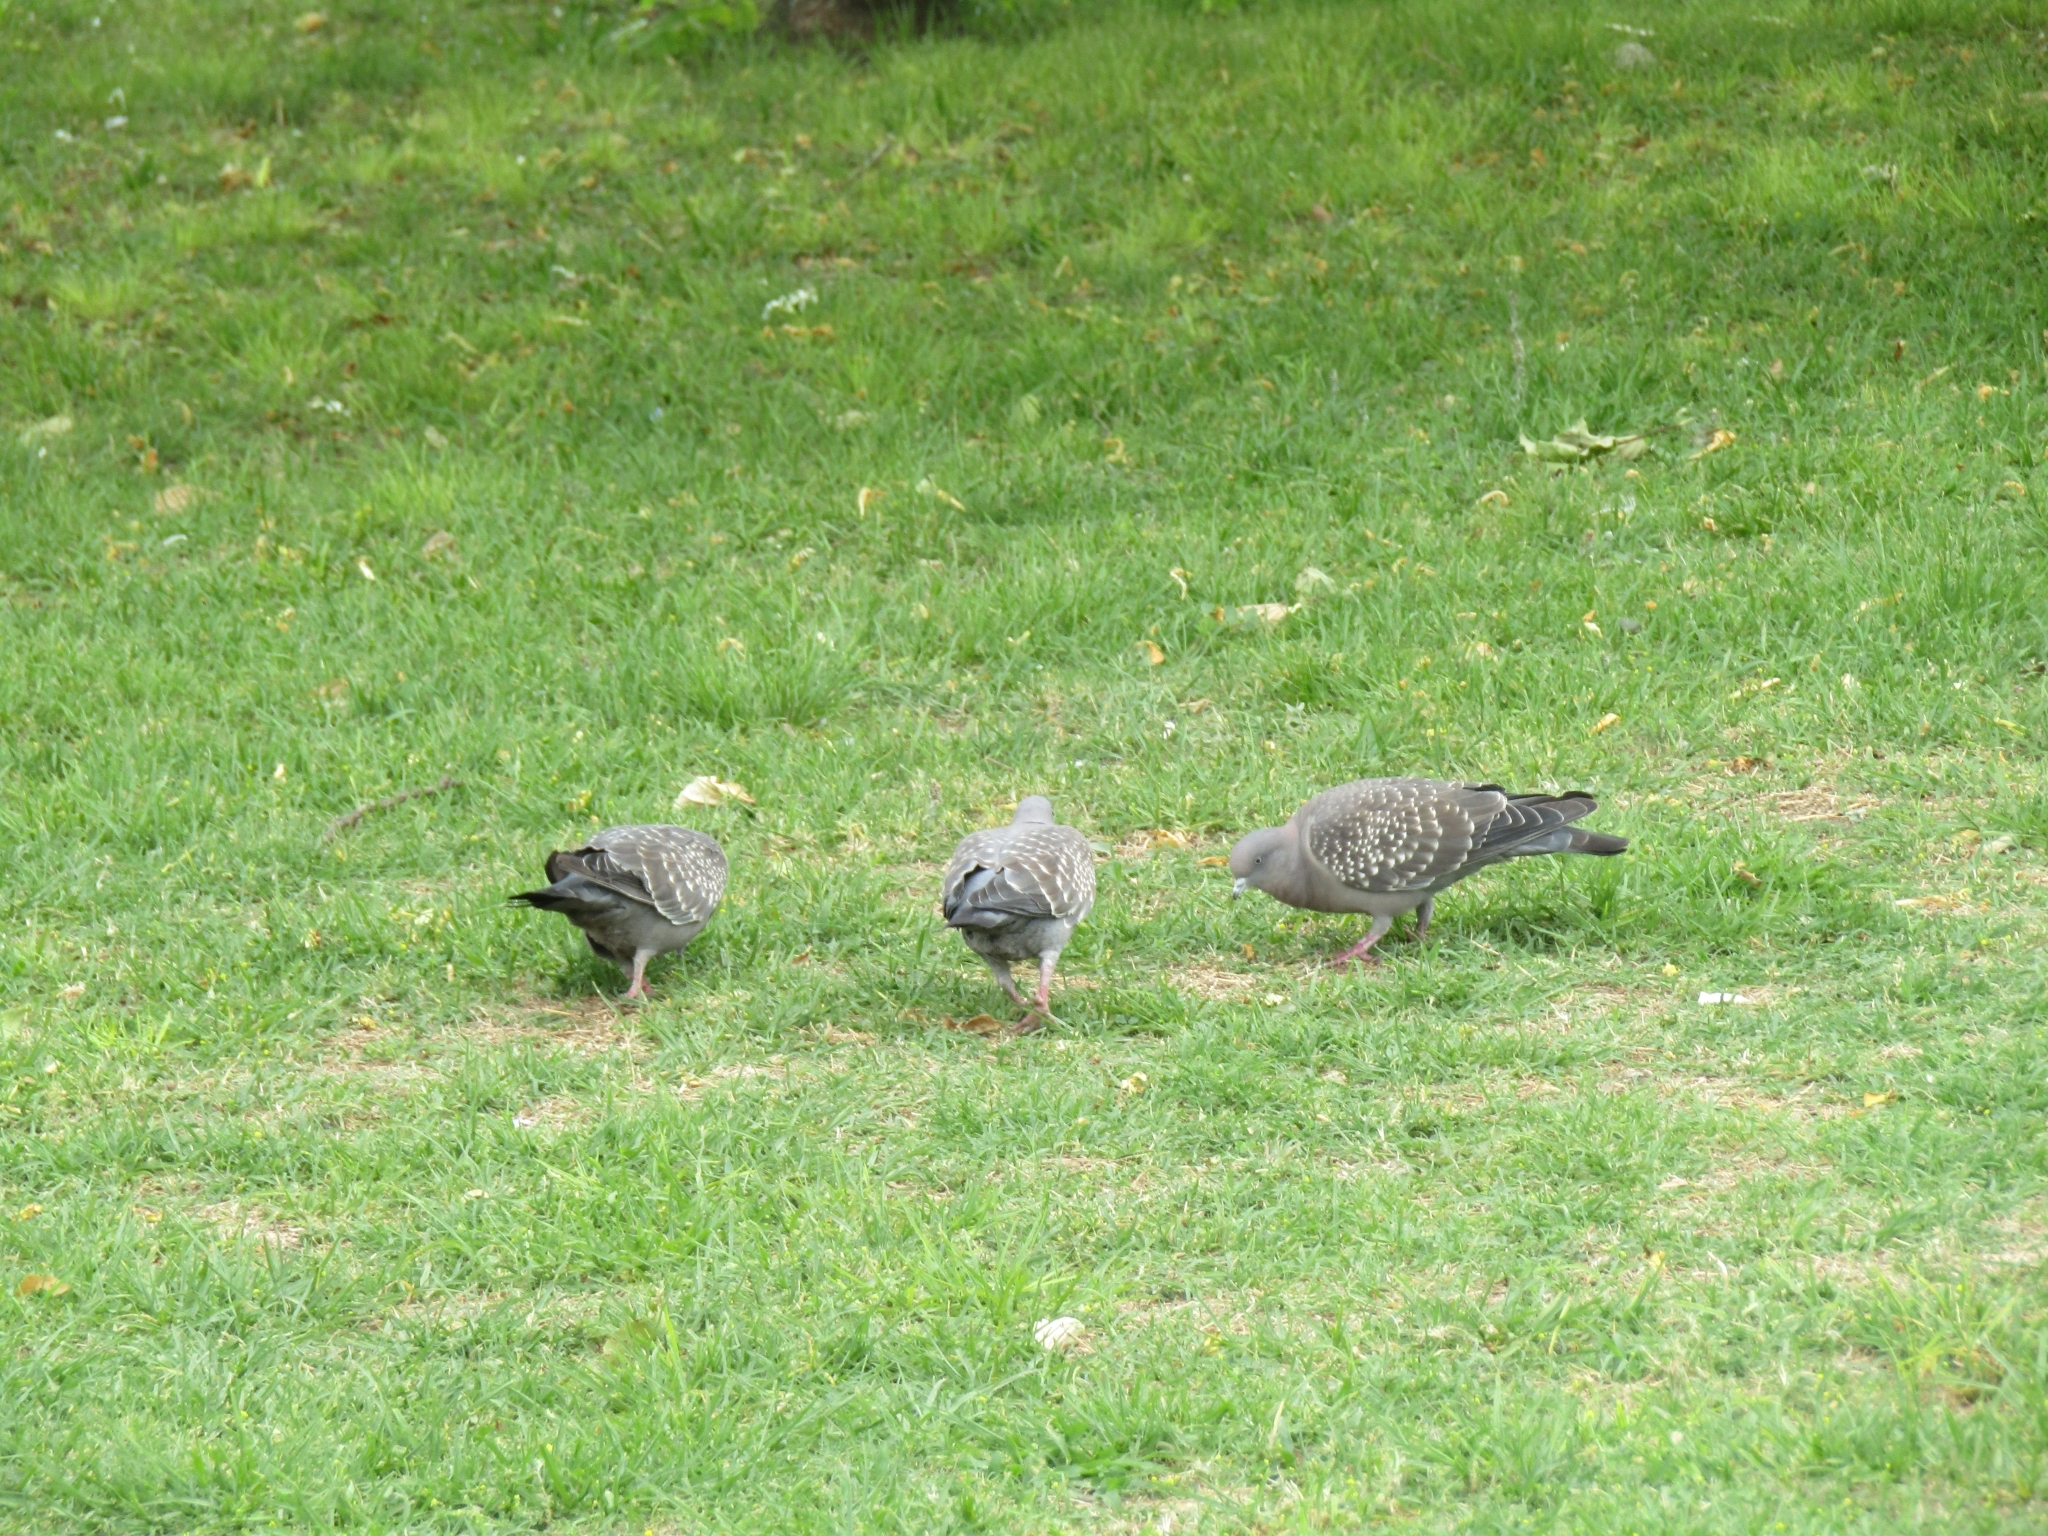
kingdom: Animalia
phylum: Chordata
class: Aves
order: Columbiformes
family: Columbidae
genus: Patagioenas
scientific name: Patagioenas maculosa
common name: Spot-winged pigeon
